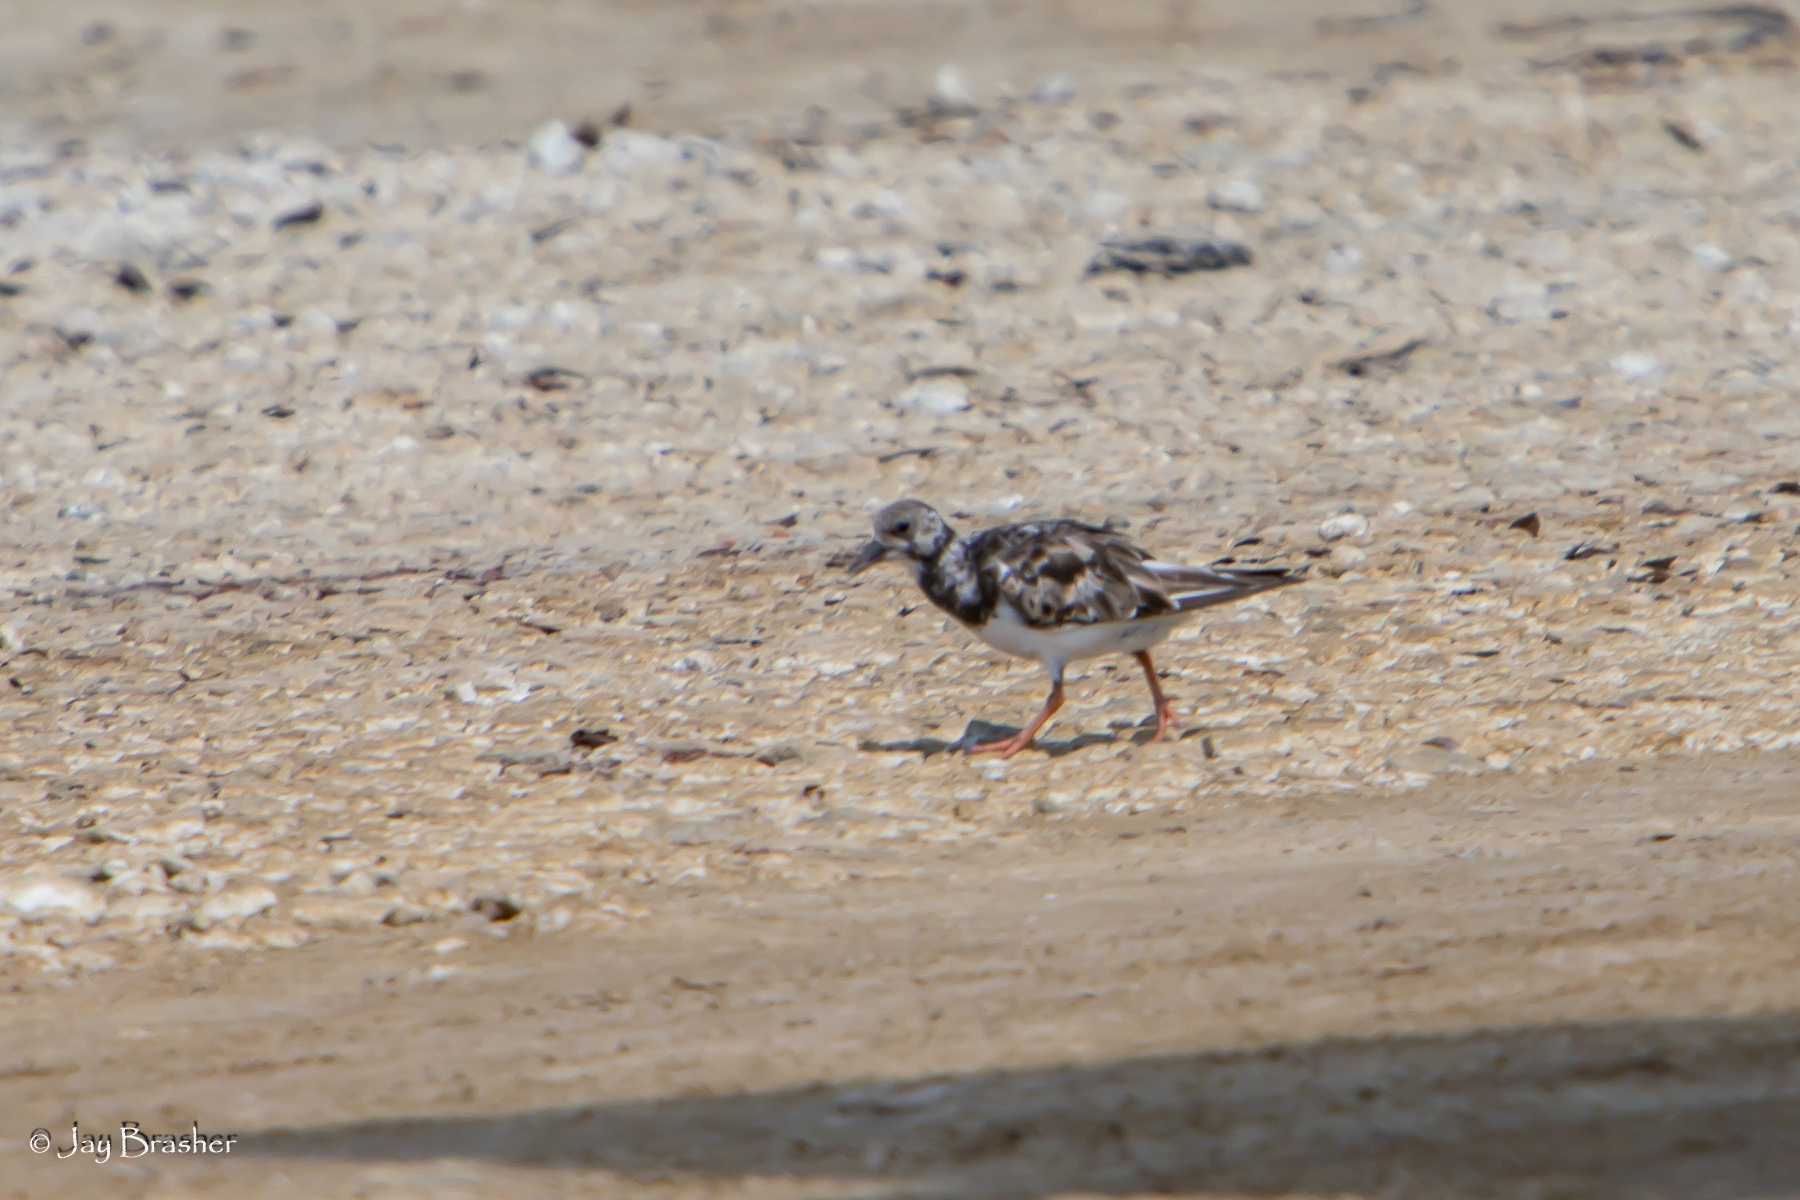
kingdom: Animalia
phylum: Chordata
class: Aves
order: Charadriiformes
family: Scolopacidae
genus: Arenaria
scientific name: Arenaria interpres
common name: Ruddy turnstone
